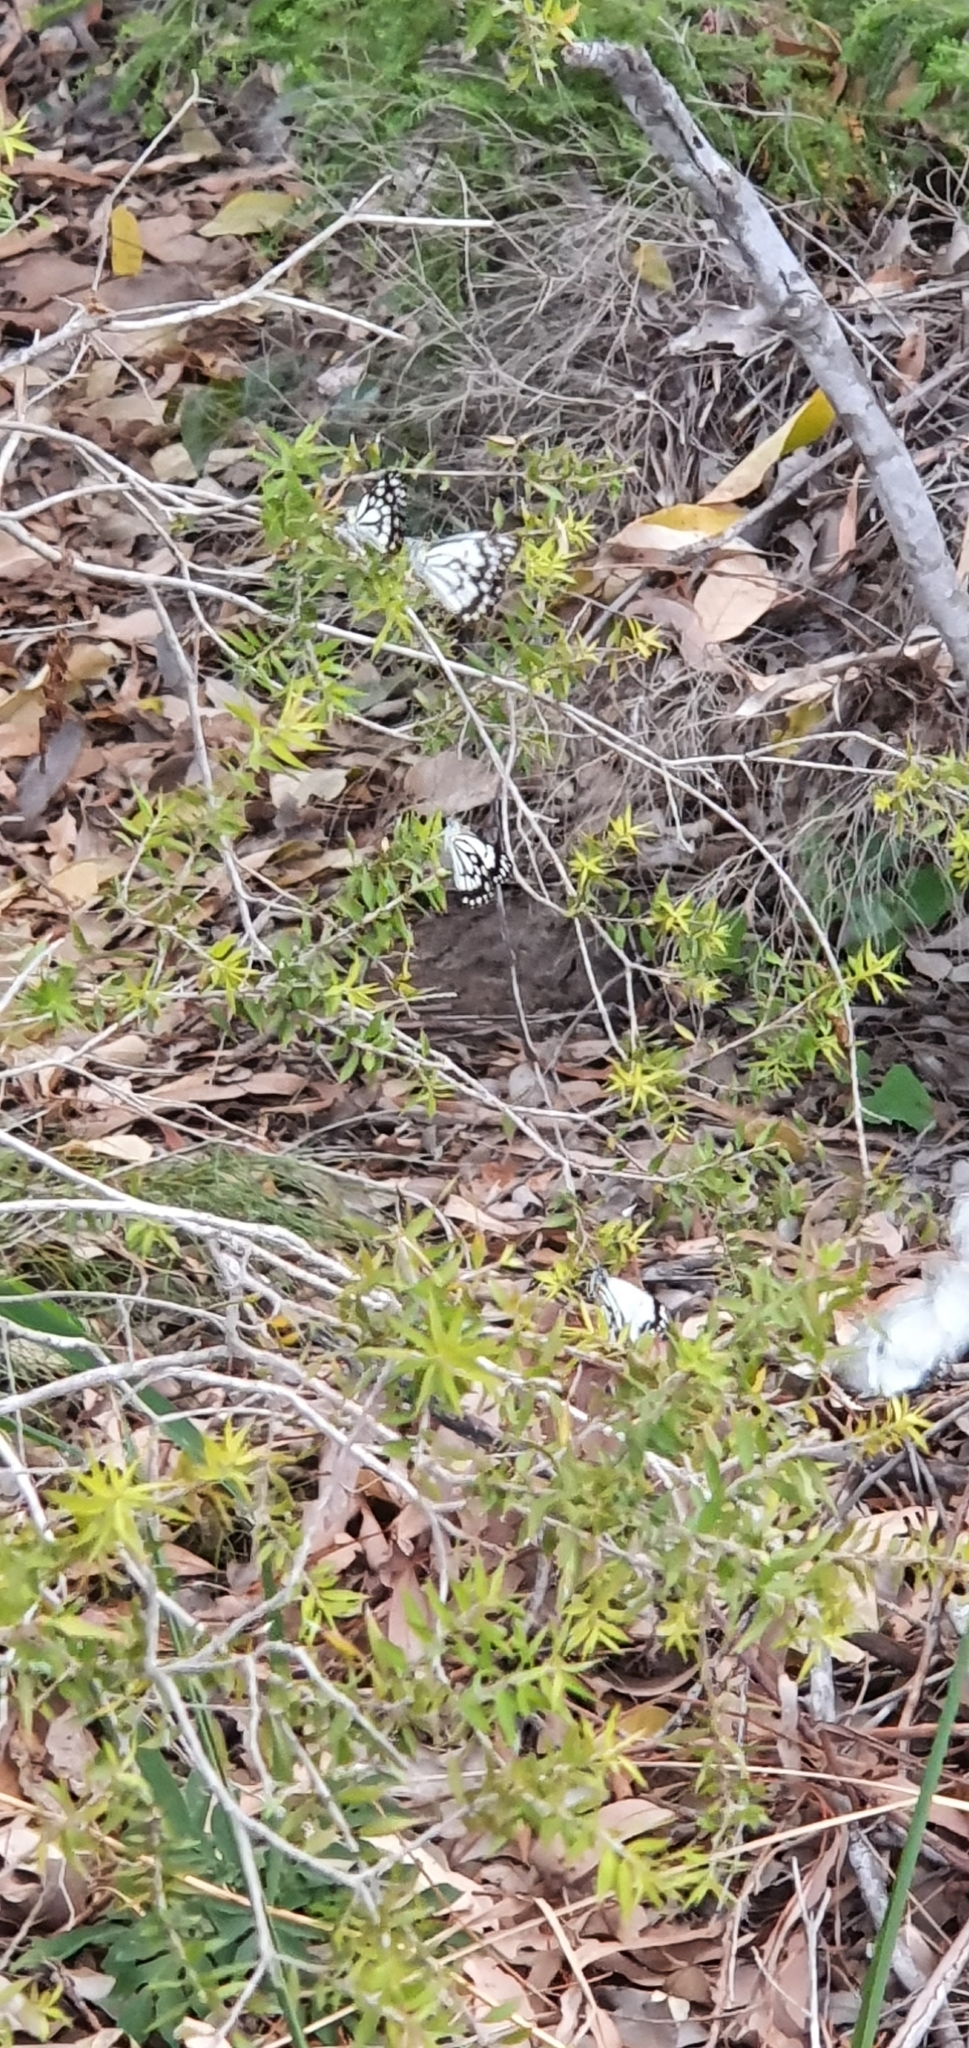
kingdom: Animalia
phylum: Arthropoda
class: Insecta
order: Lepidoptera
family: Pieridae
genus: Belenois
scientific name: Belenois java
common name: Caper white
